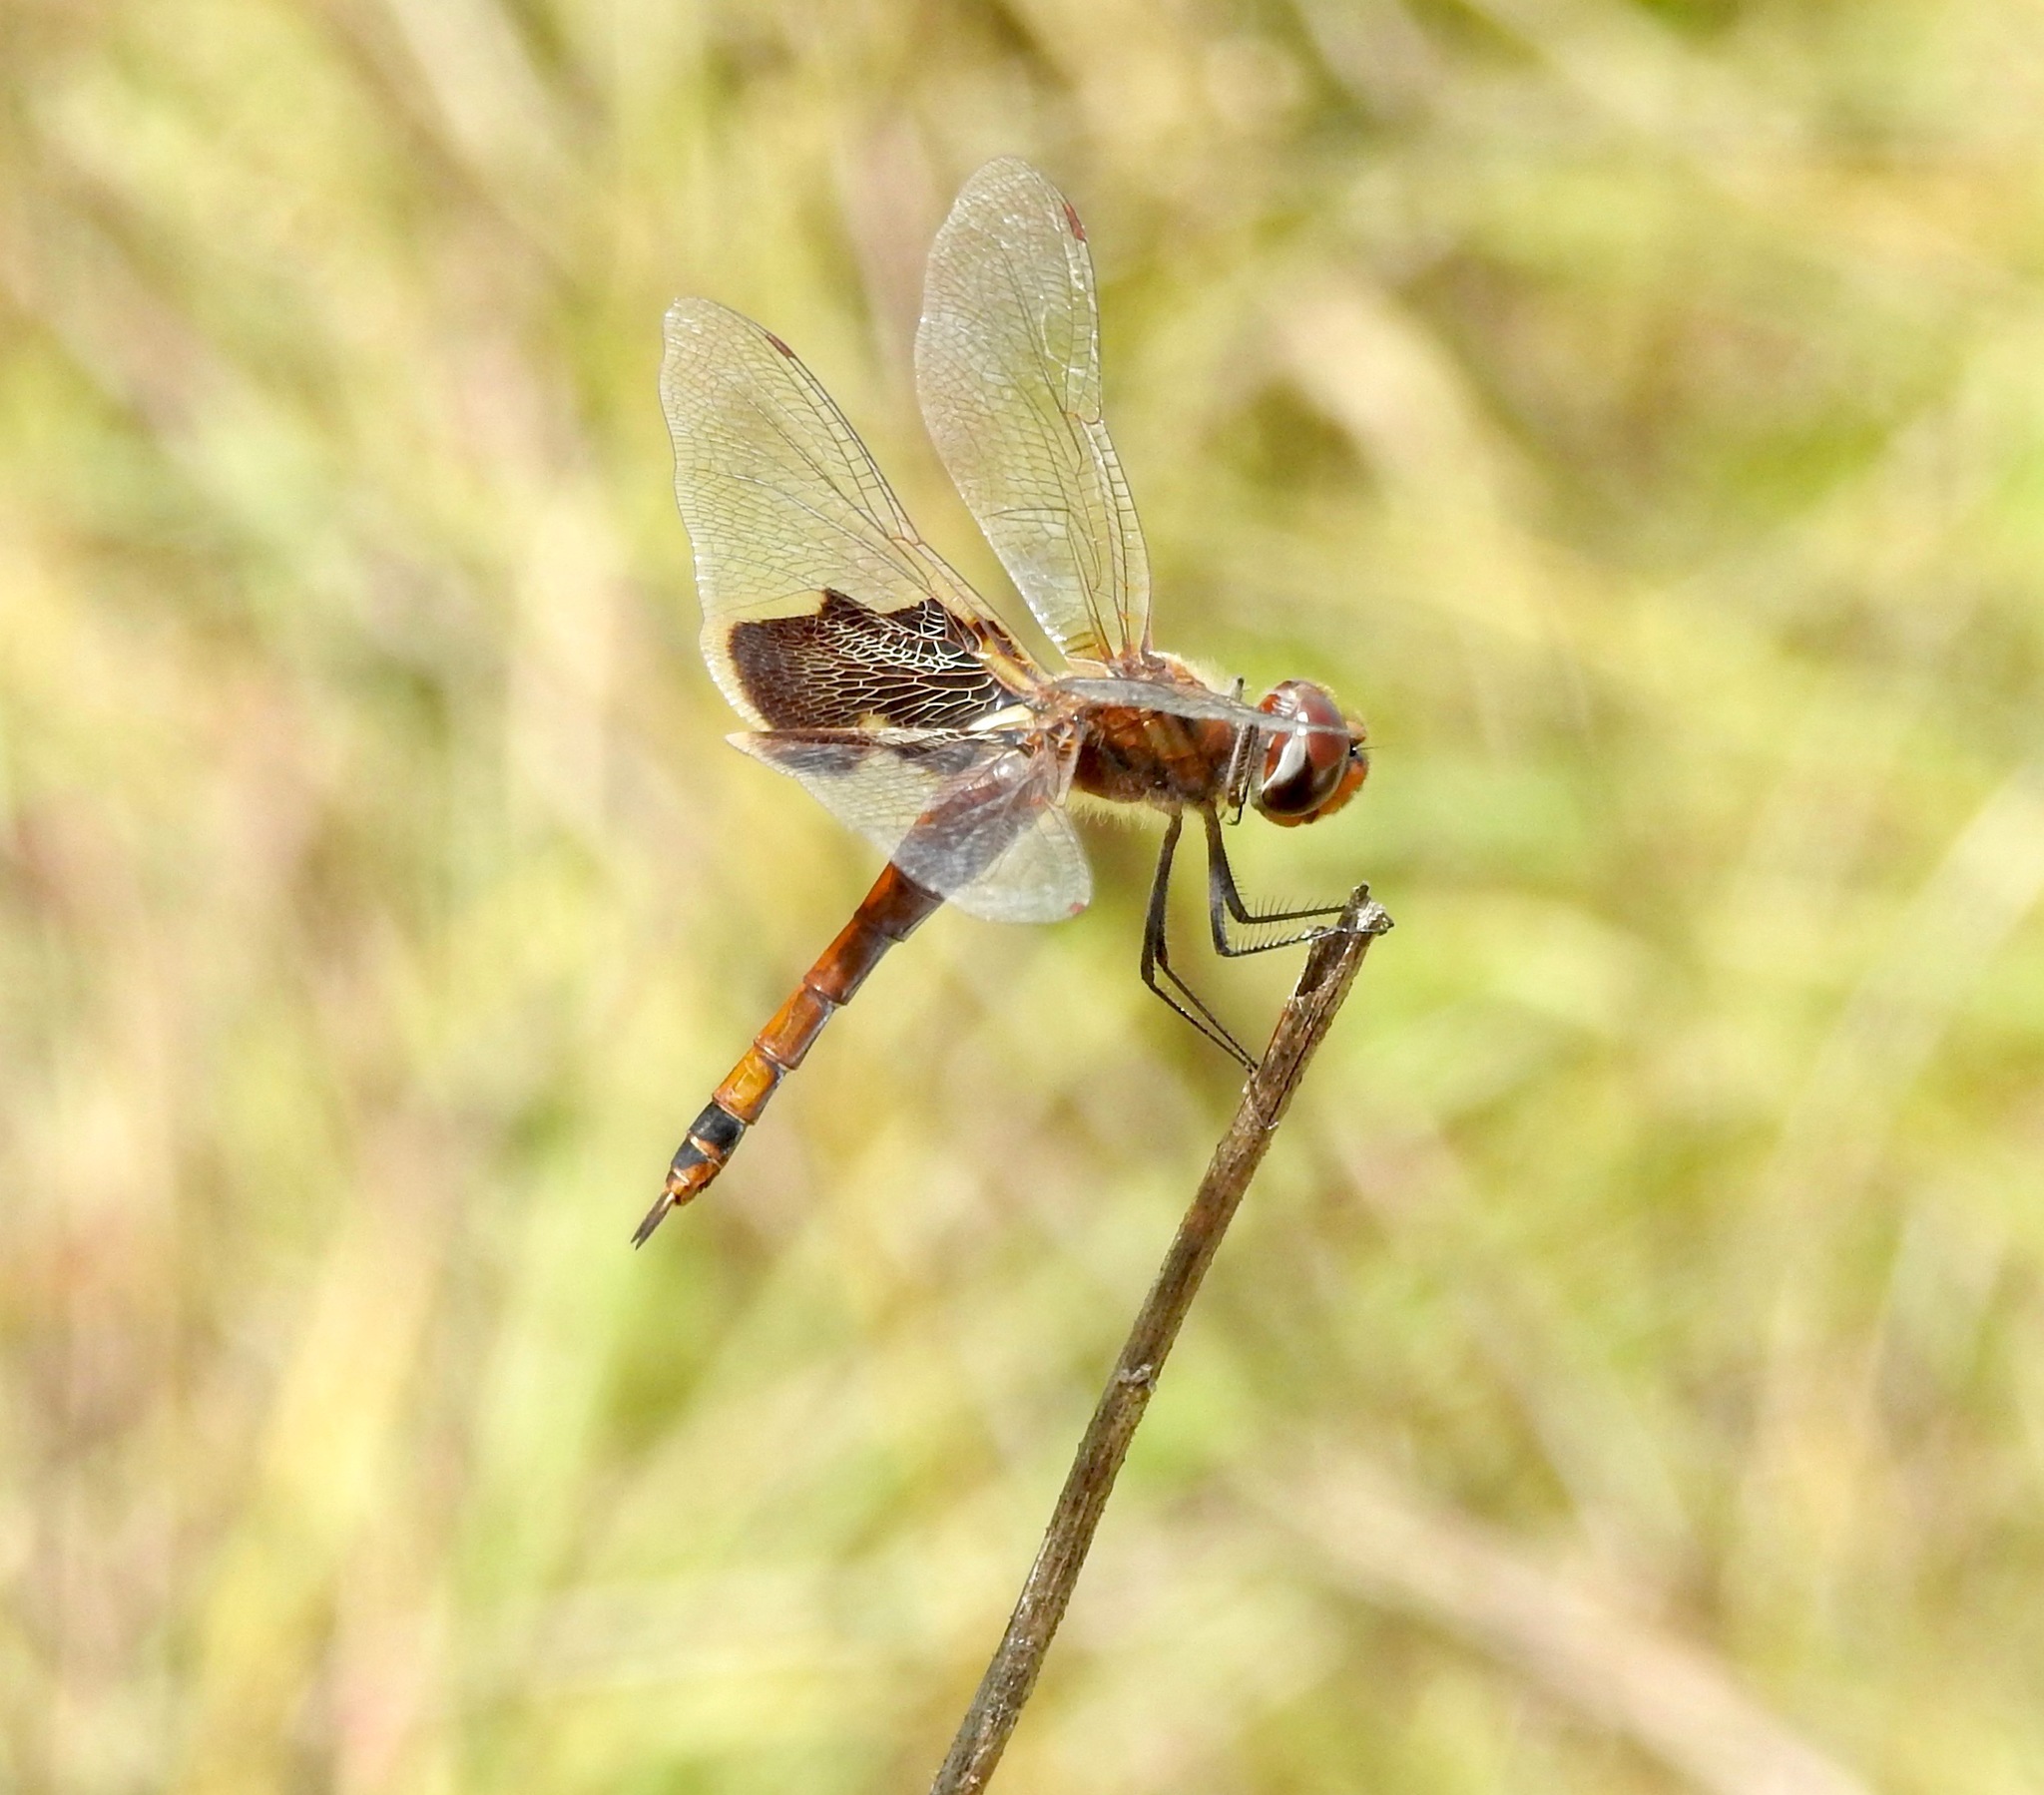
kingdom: Animalia
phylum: Arthropoda
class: Insecta
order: Odonata
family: Libellulidae
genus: Tramea
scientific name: Tramea carolina
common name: Carolina saddlebags
